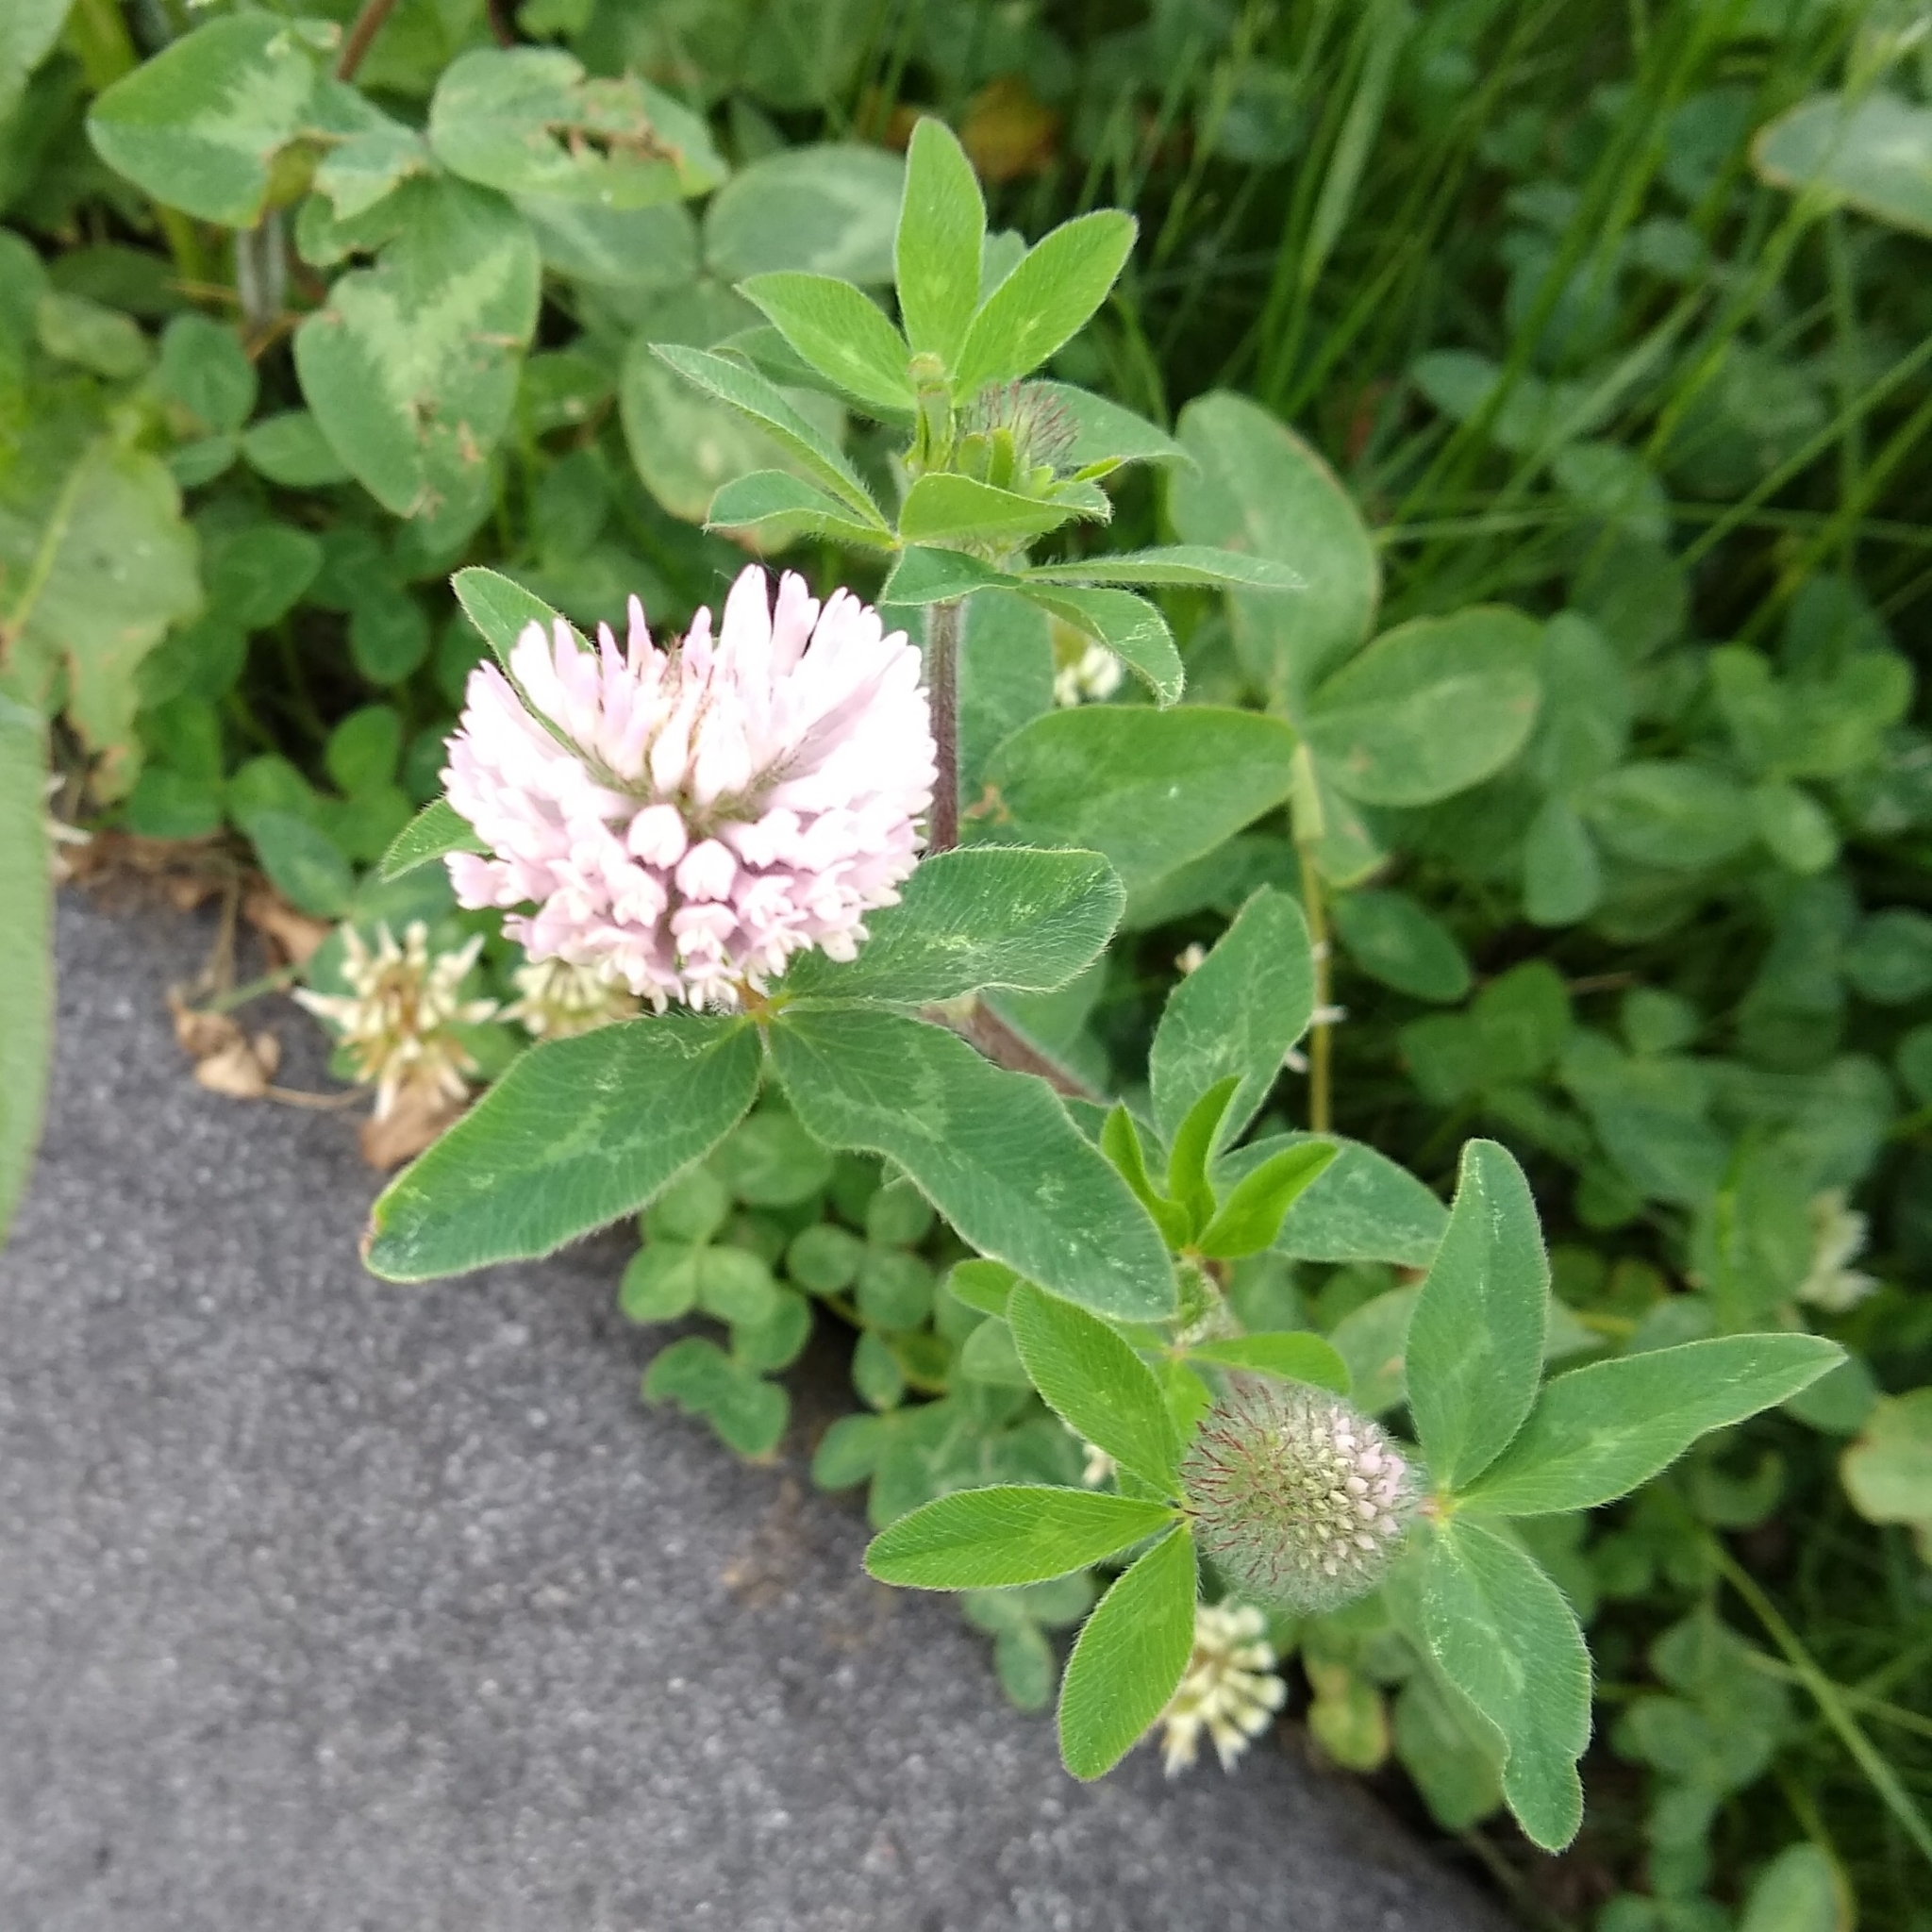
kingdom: Plantae
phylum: Tracheophyta
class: Magnoliopsida
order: Fabales
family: Fabaceae
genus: Trifolium
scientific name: Trifolium pratense
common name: Red clover
